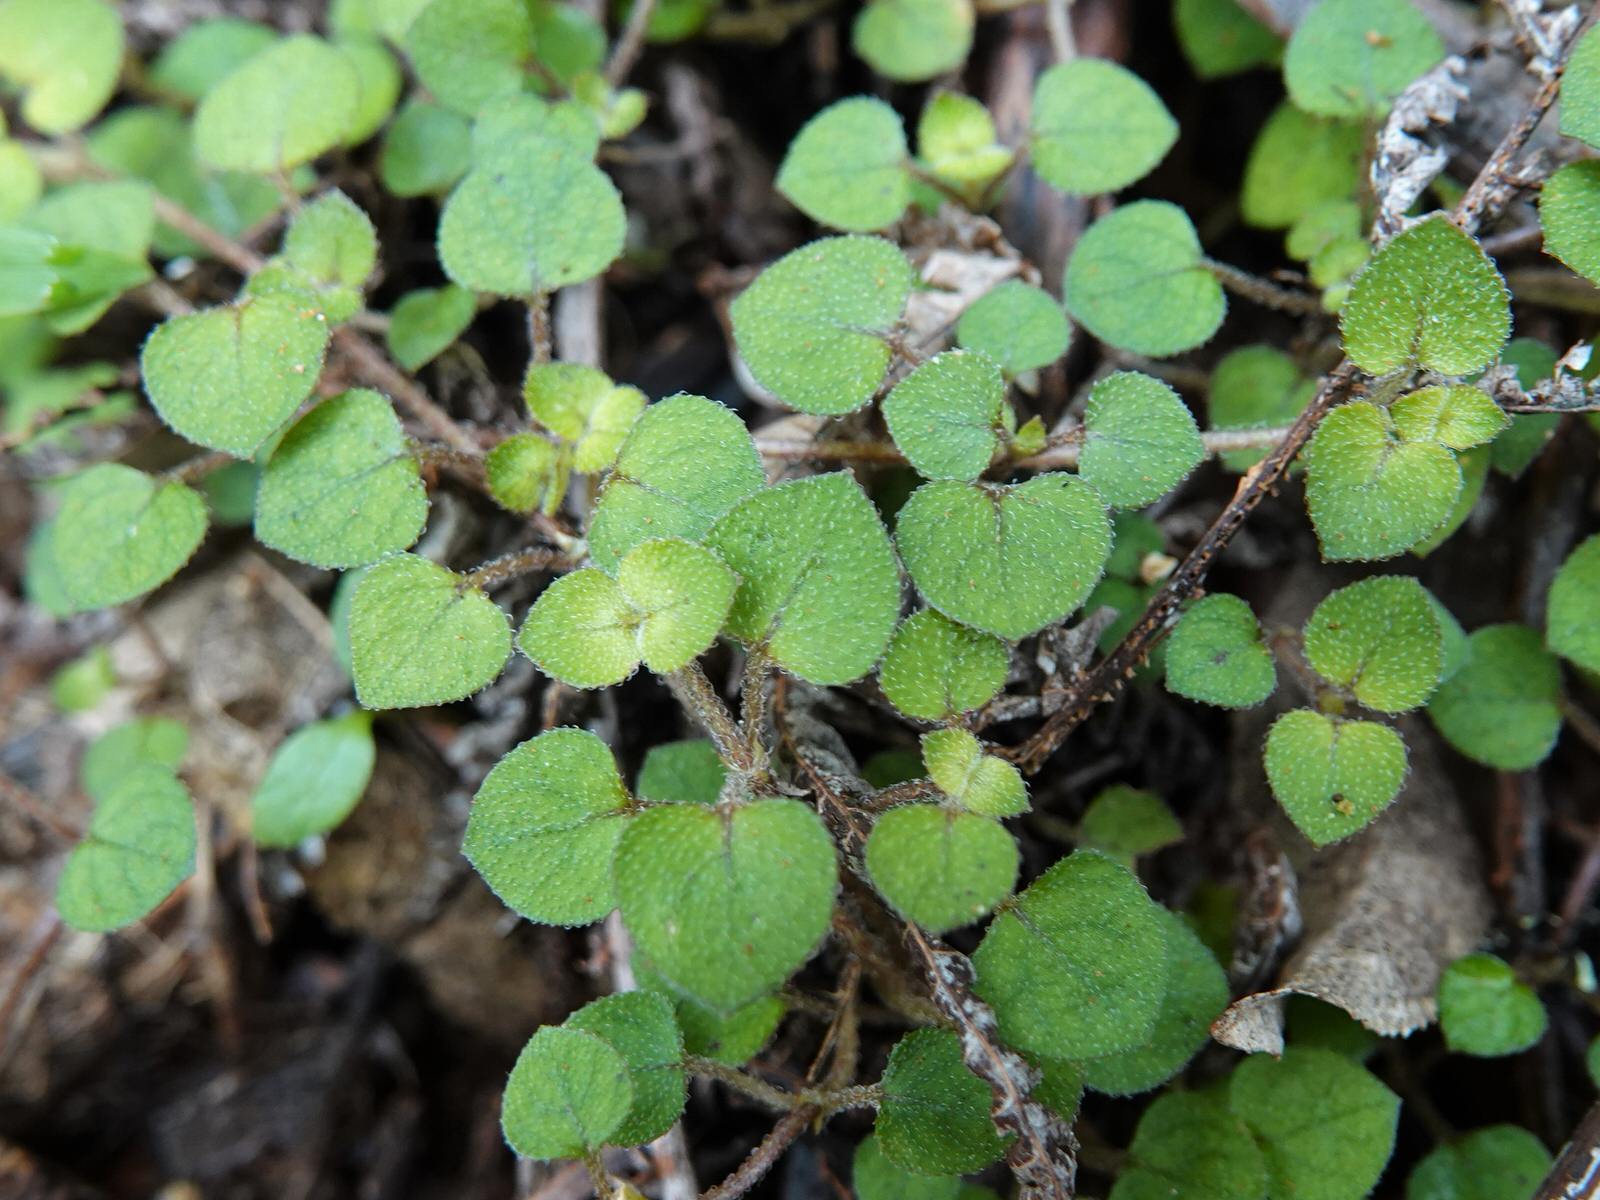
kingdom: Plantae
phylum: Tracheophyta
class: Magnoliopsida
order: Gentianales
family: Rubiaceae
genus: Nertera
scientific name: Nertera dichondrifolia
